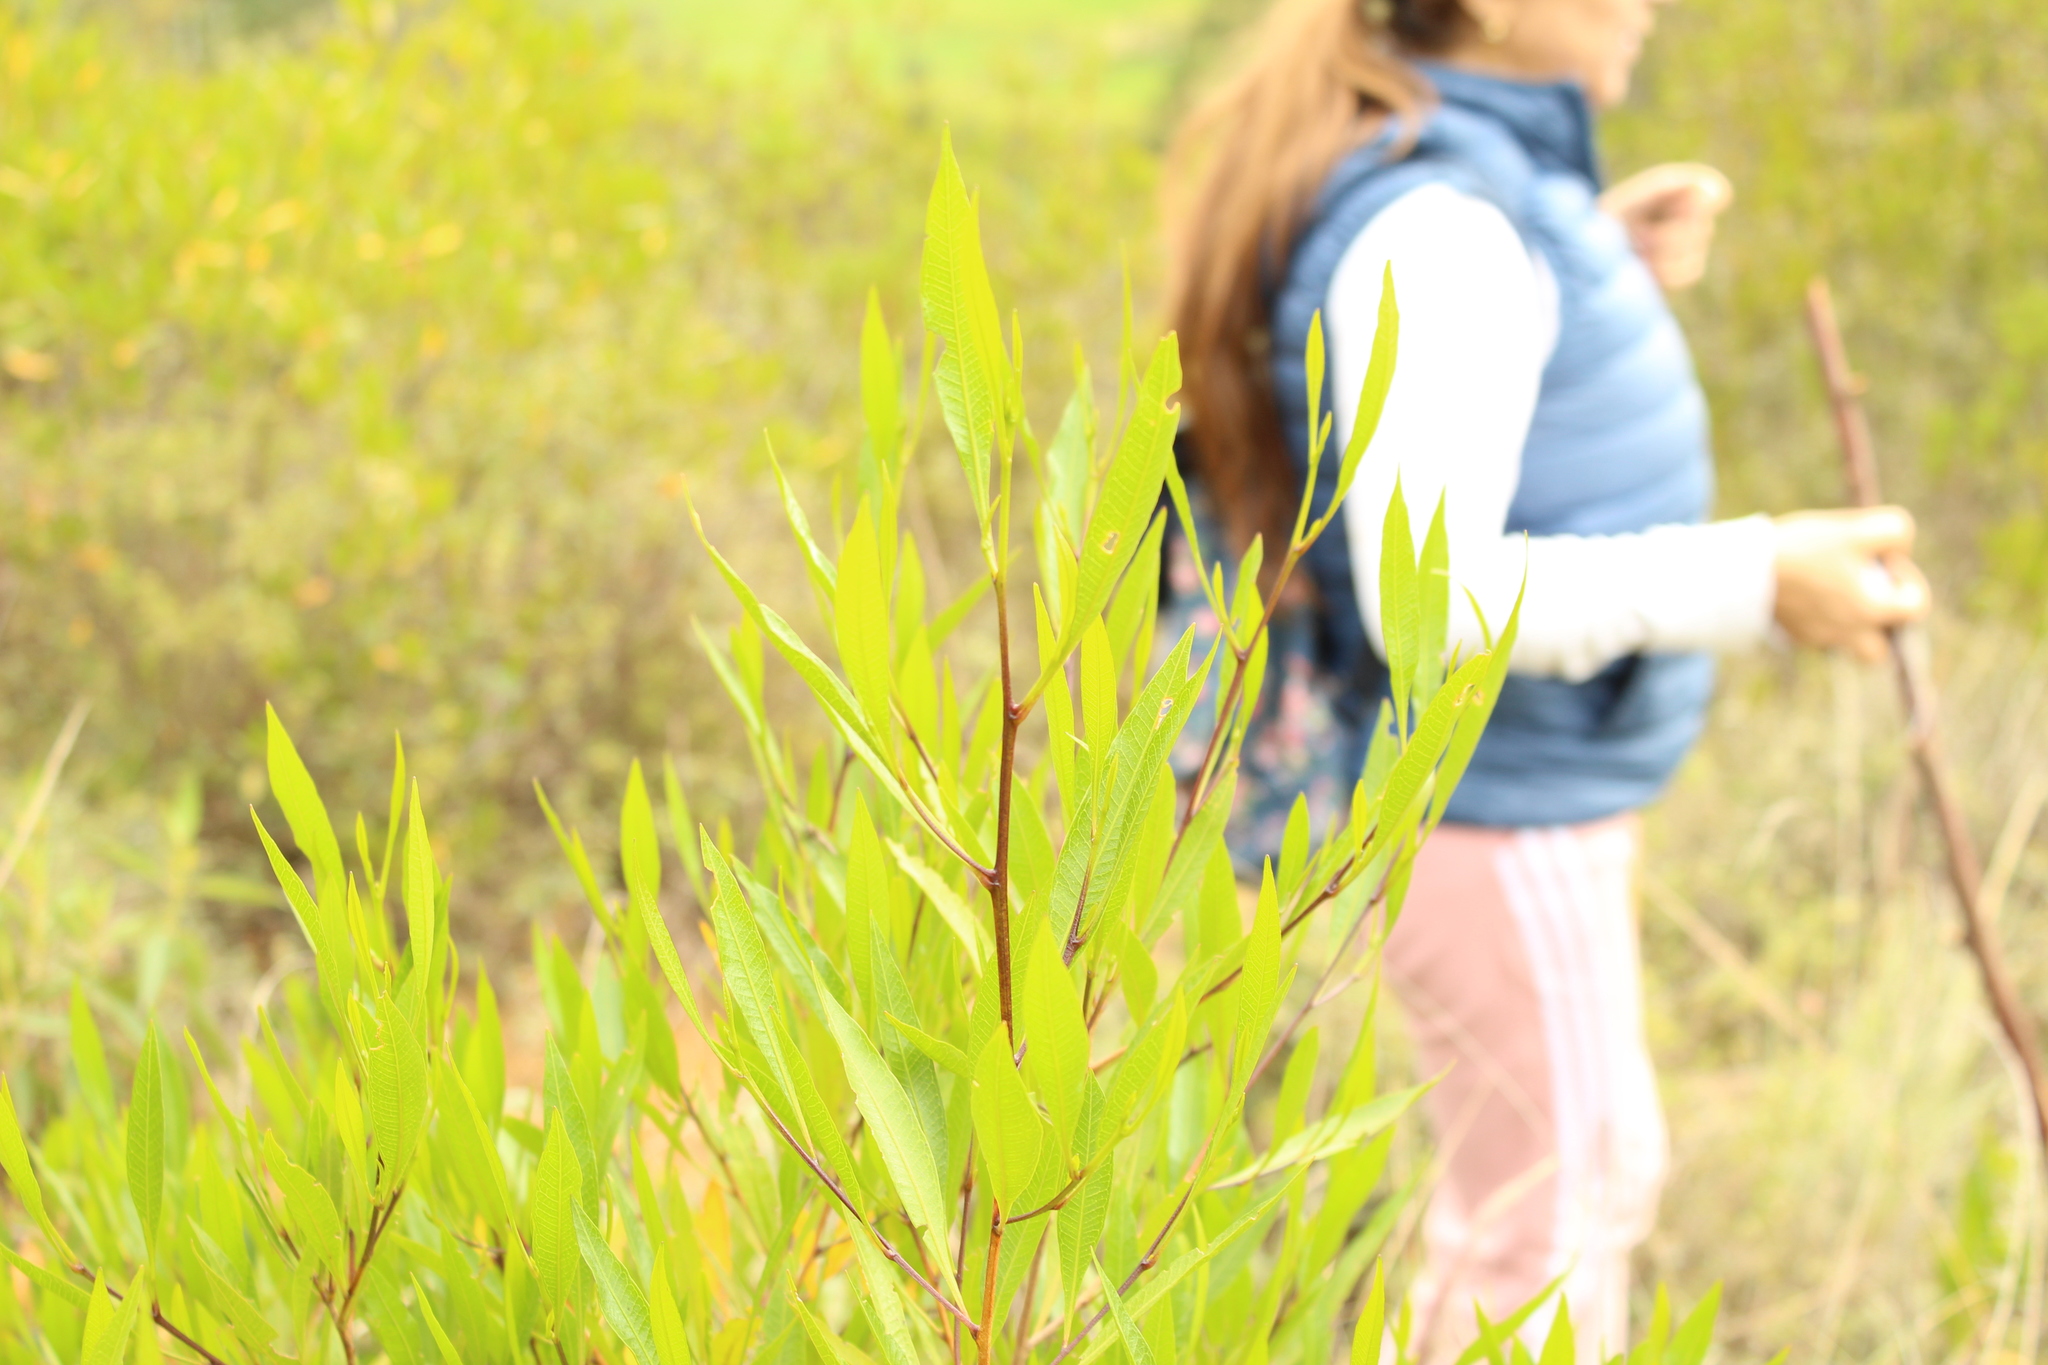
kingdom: Plantae
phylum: Tracheophyta
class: Magnoliopsida
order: Sapindales
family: Sapindaceae
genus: Dodonaea
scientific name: Dodonaea viscosa
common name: Hopbush
